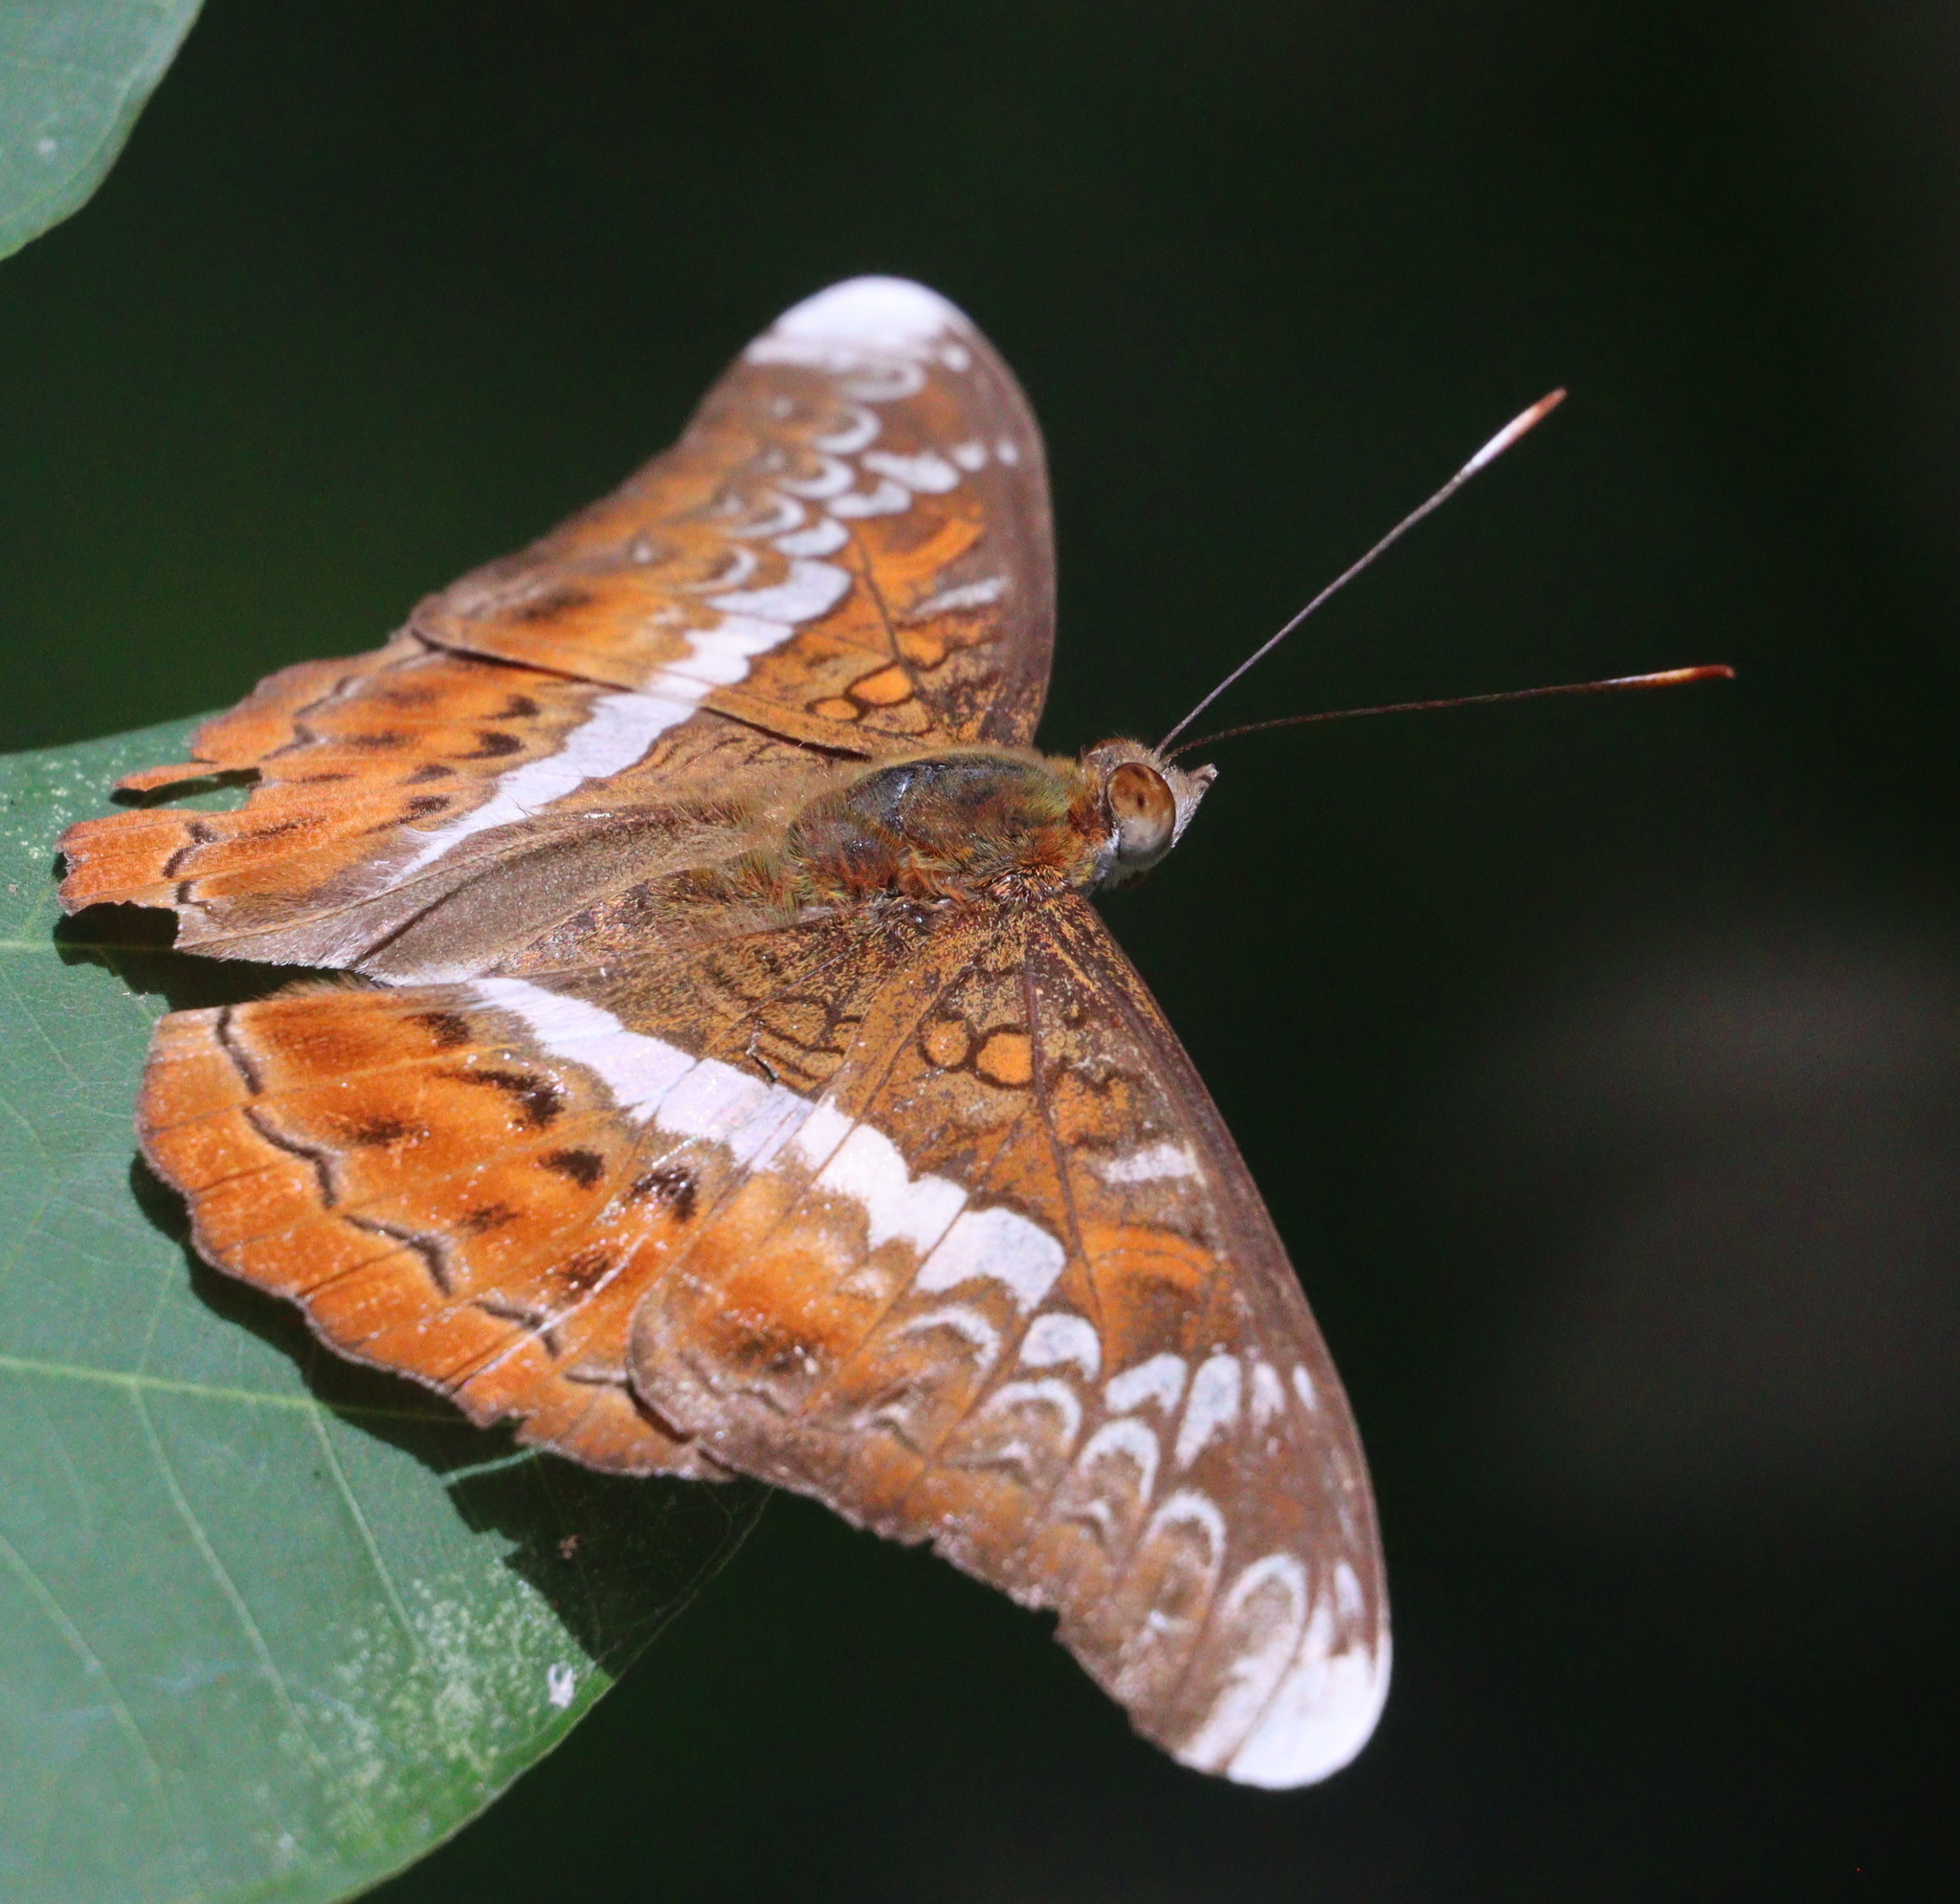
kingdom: Animalia
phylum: Arthropoda
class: Insecta
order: Lepidoptera
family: Nymphalidae
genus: Lebadea
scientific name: Lebadea martha
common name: Knight
